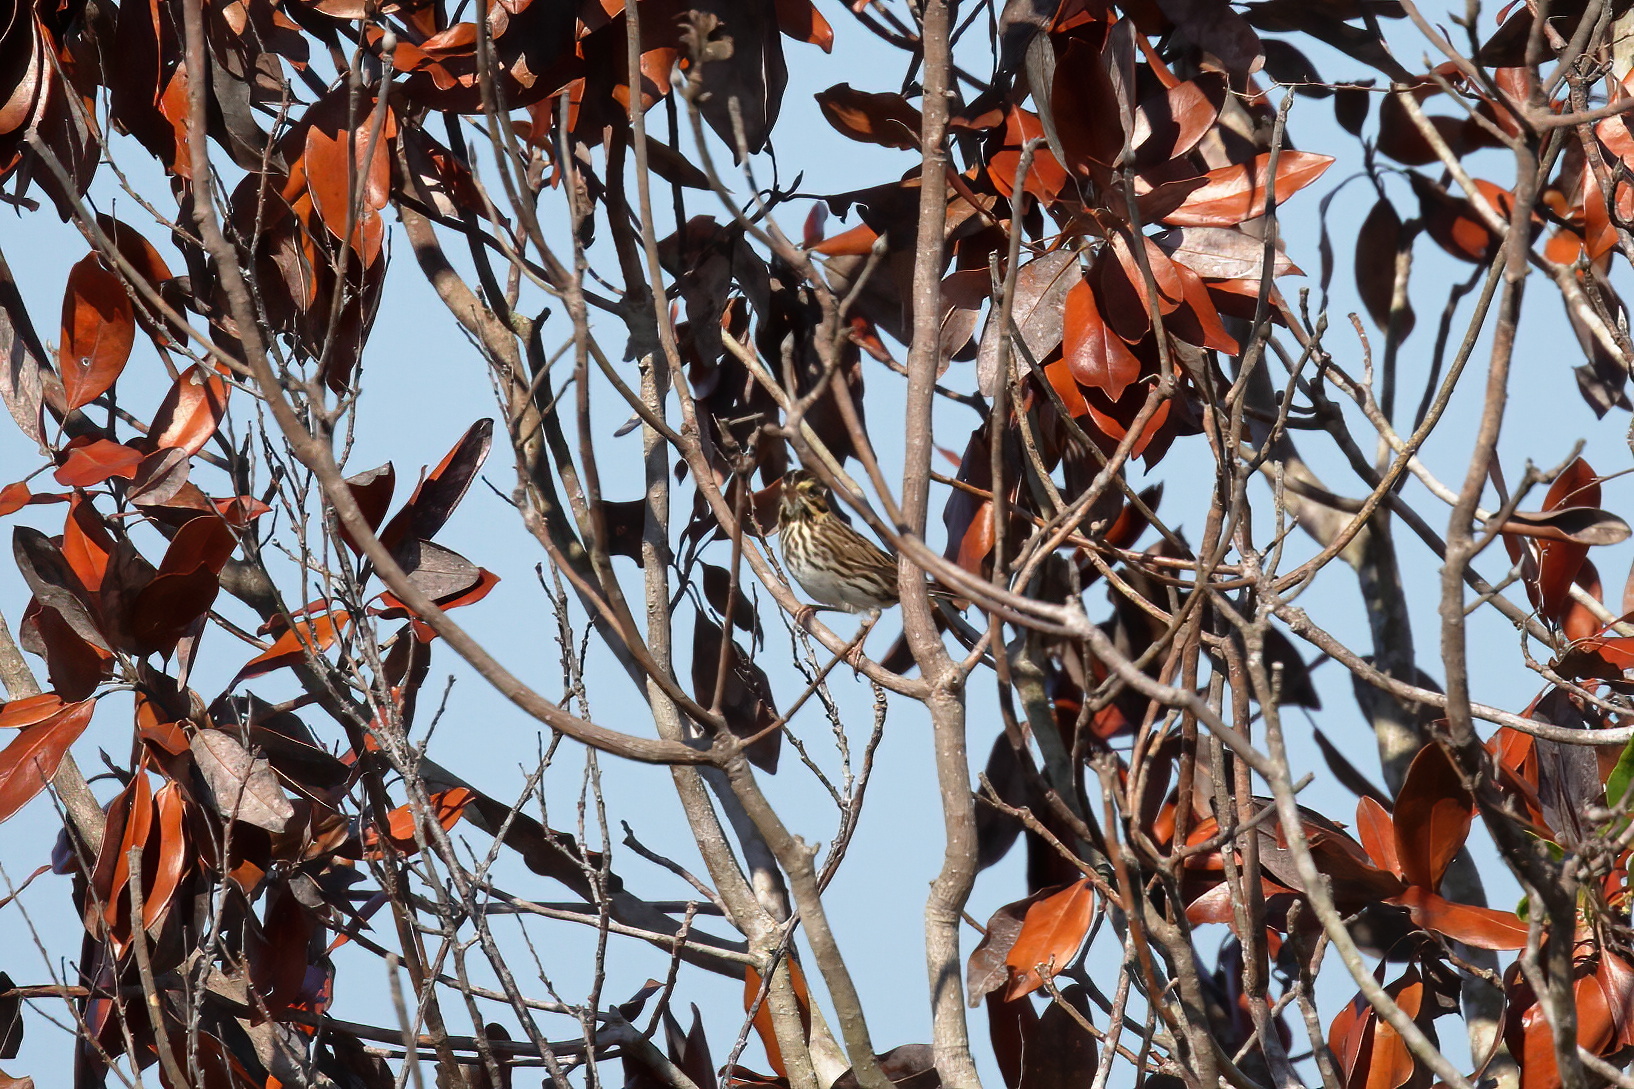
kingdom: Animalia
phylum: Chordata
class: Aves
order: Passeriformes
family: Passerellidae
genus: Passerculus
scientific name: Passerculus sandwichensis
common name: Savannah sparrow
